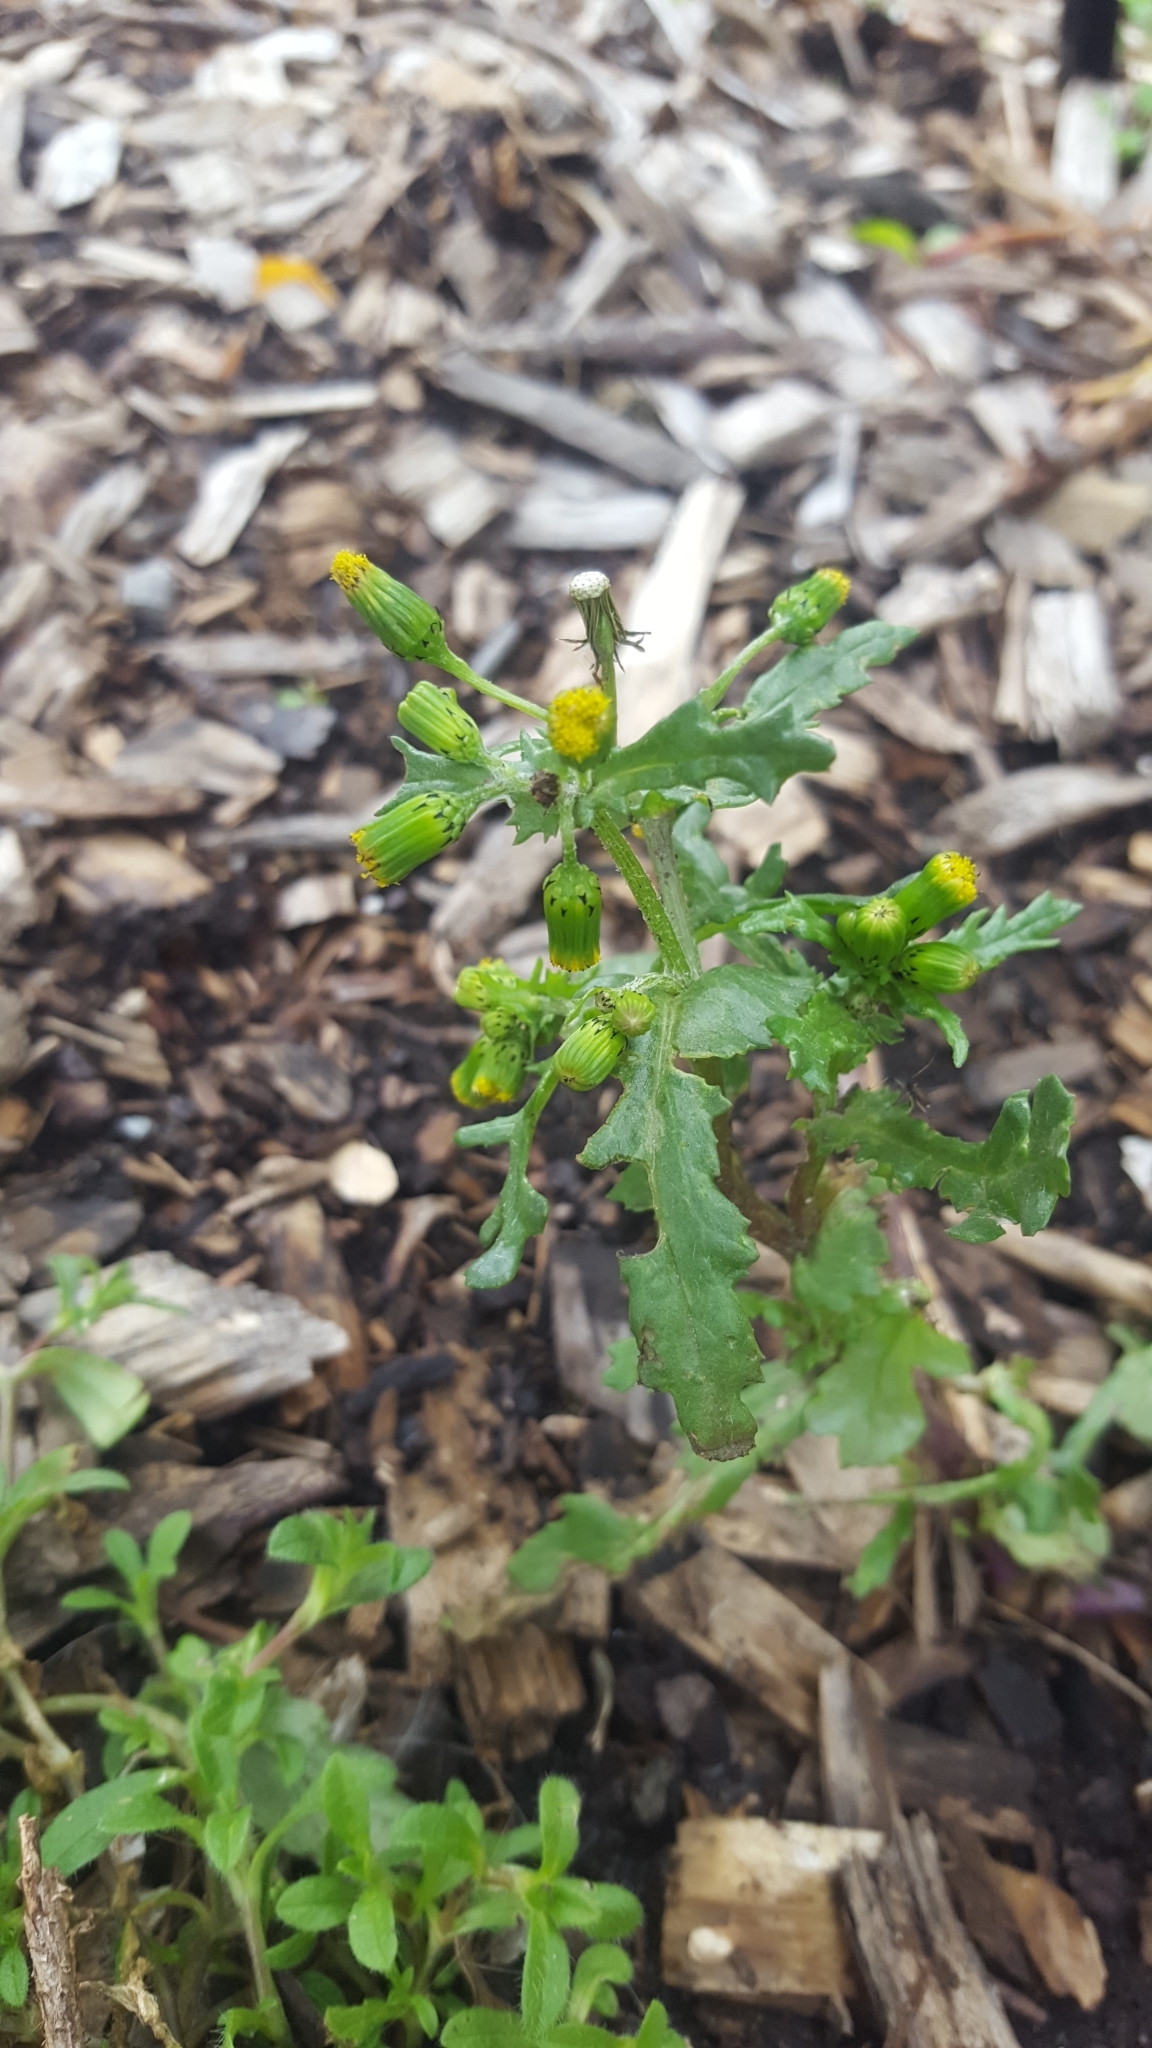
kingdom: Plantae
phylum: Tracheophyta
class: Magnoliopsida
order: Asterales
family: Asteraceae
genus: Senecio
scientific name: Senecio vulgaris
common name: Old-man-in-the-spring
